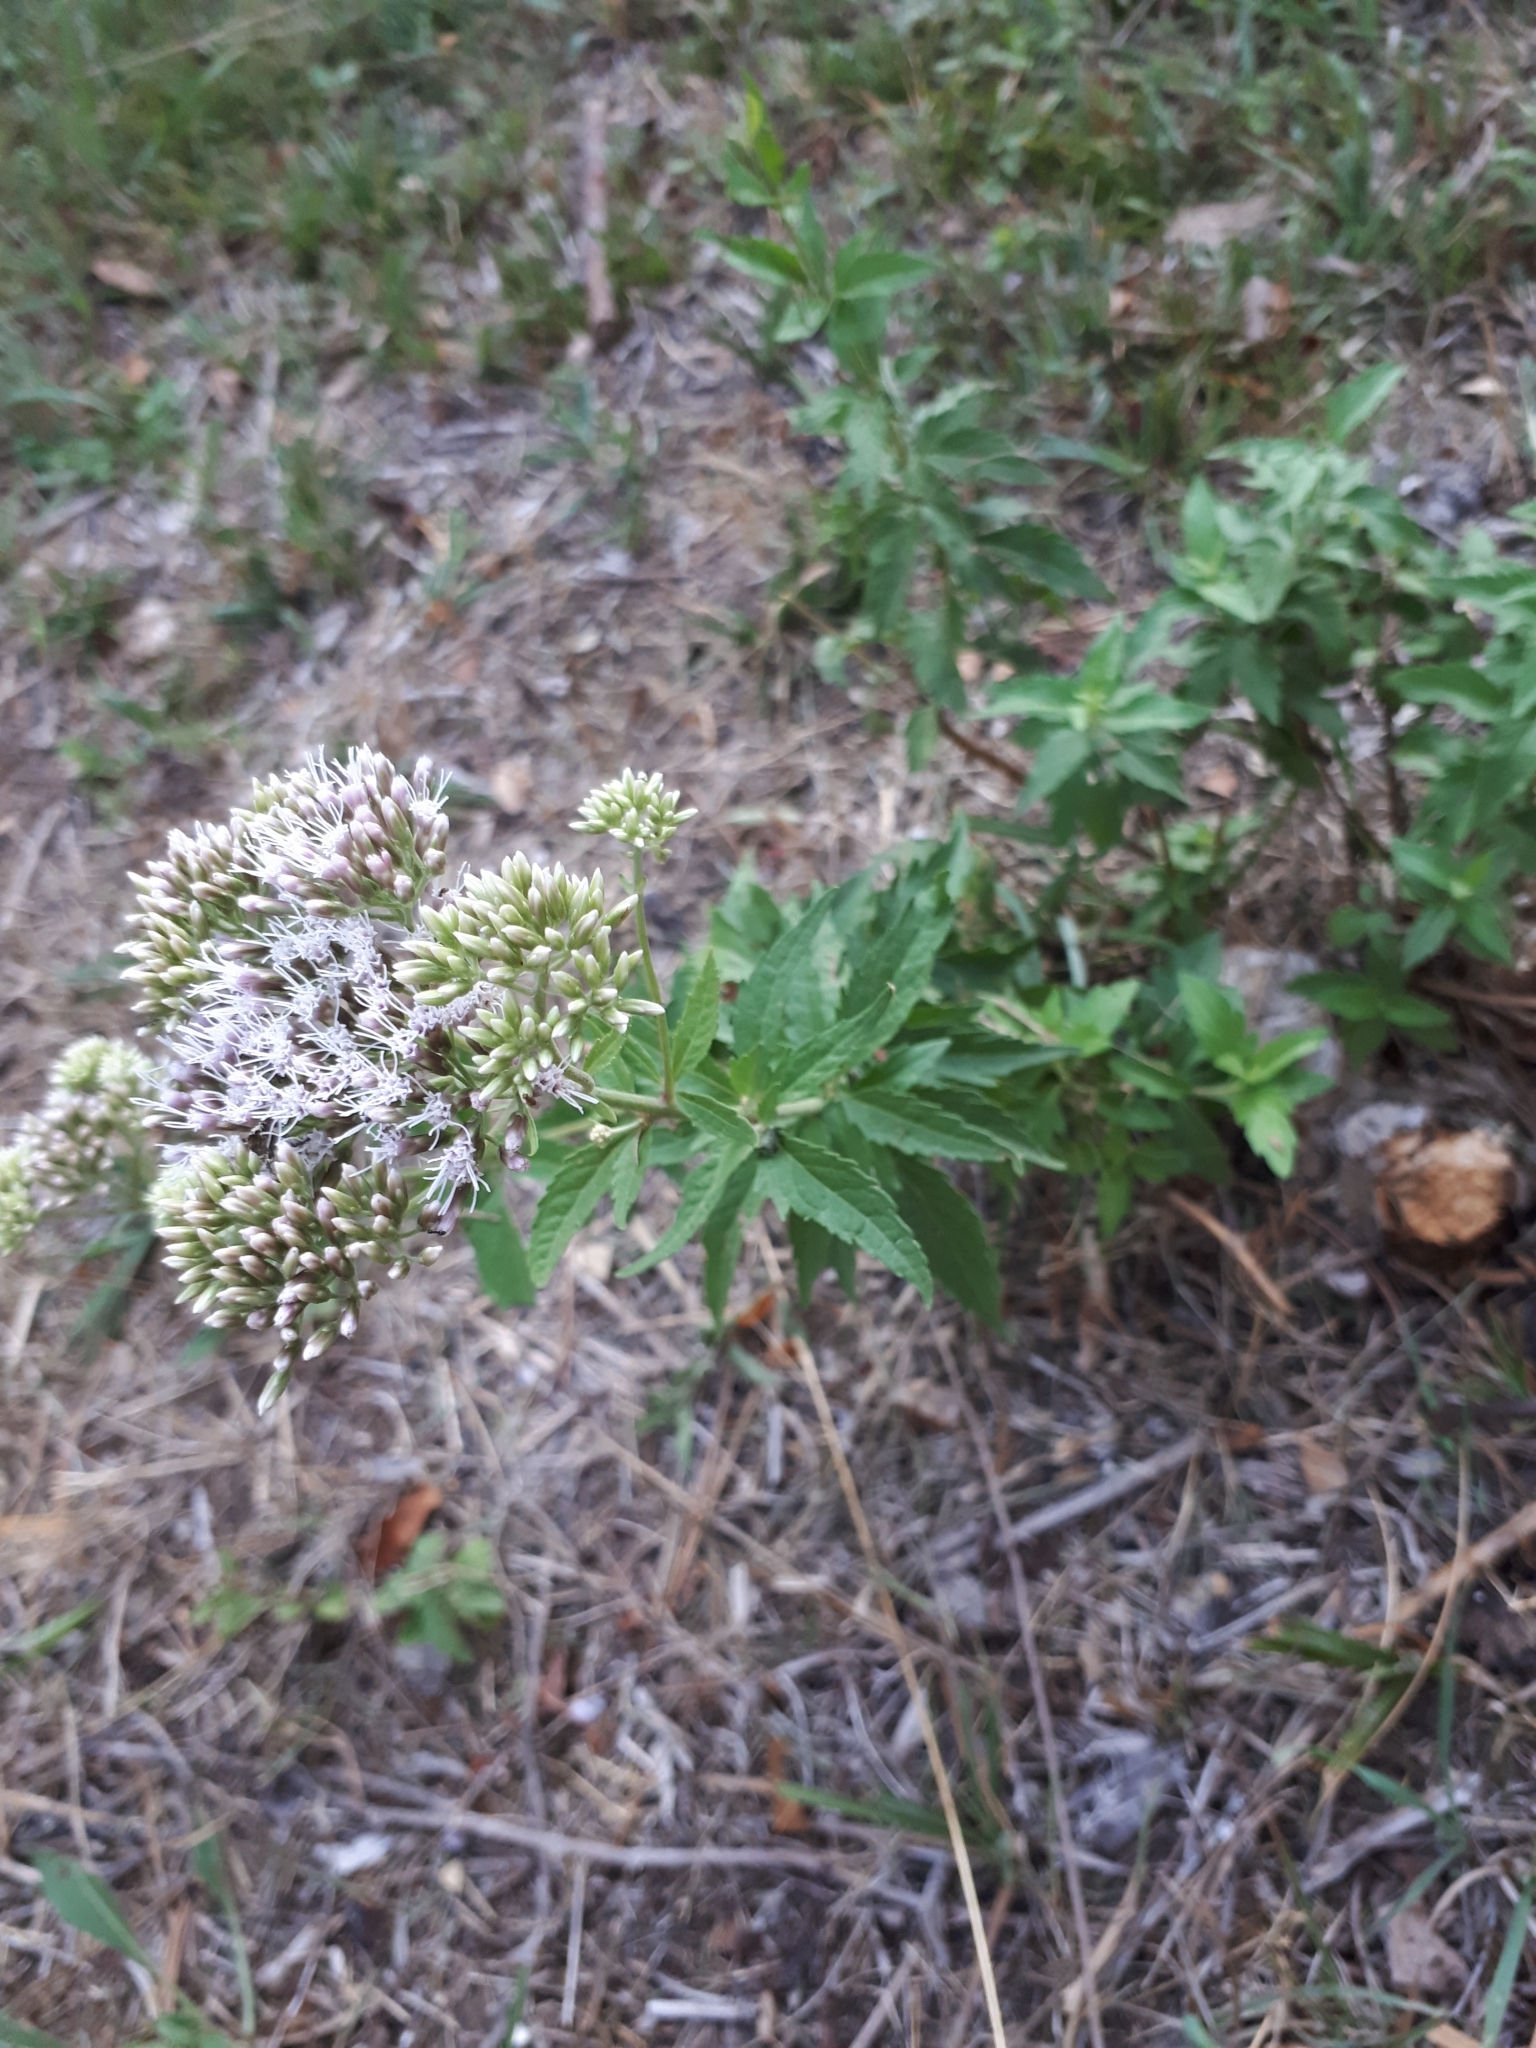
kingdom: Plantae
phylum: Tracheophyta
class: Magnoliopsida
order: Asterales
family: Asteraceae
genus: Eupatorium
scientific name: Eupatorium cannabinum
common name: Hemp-agrimony
